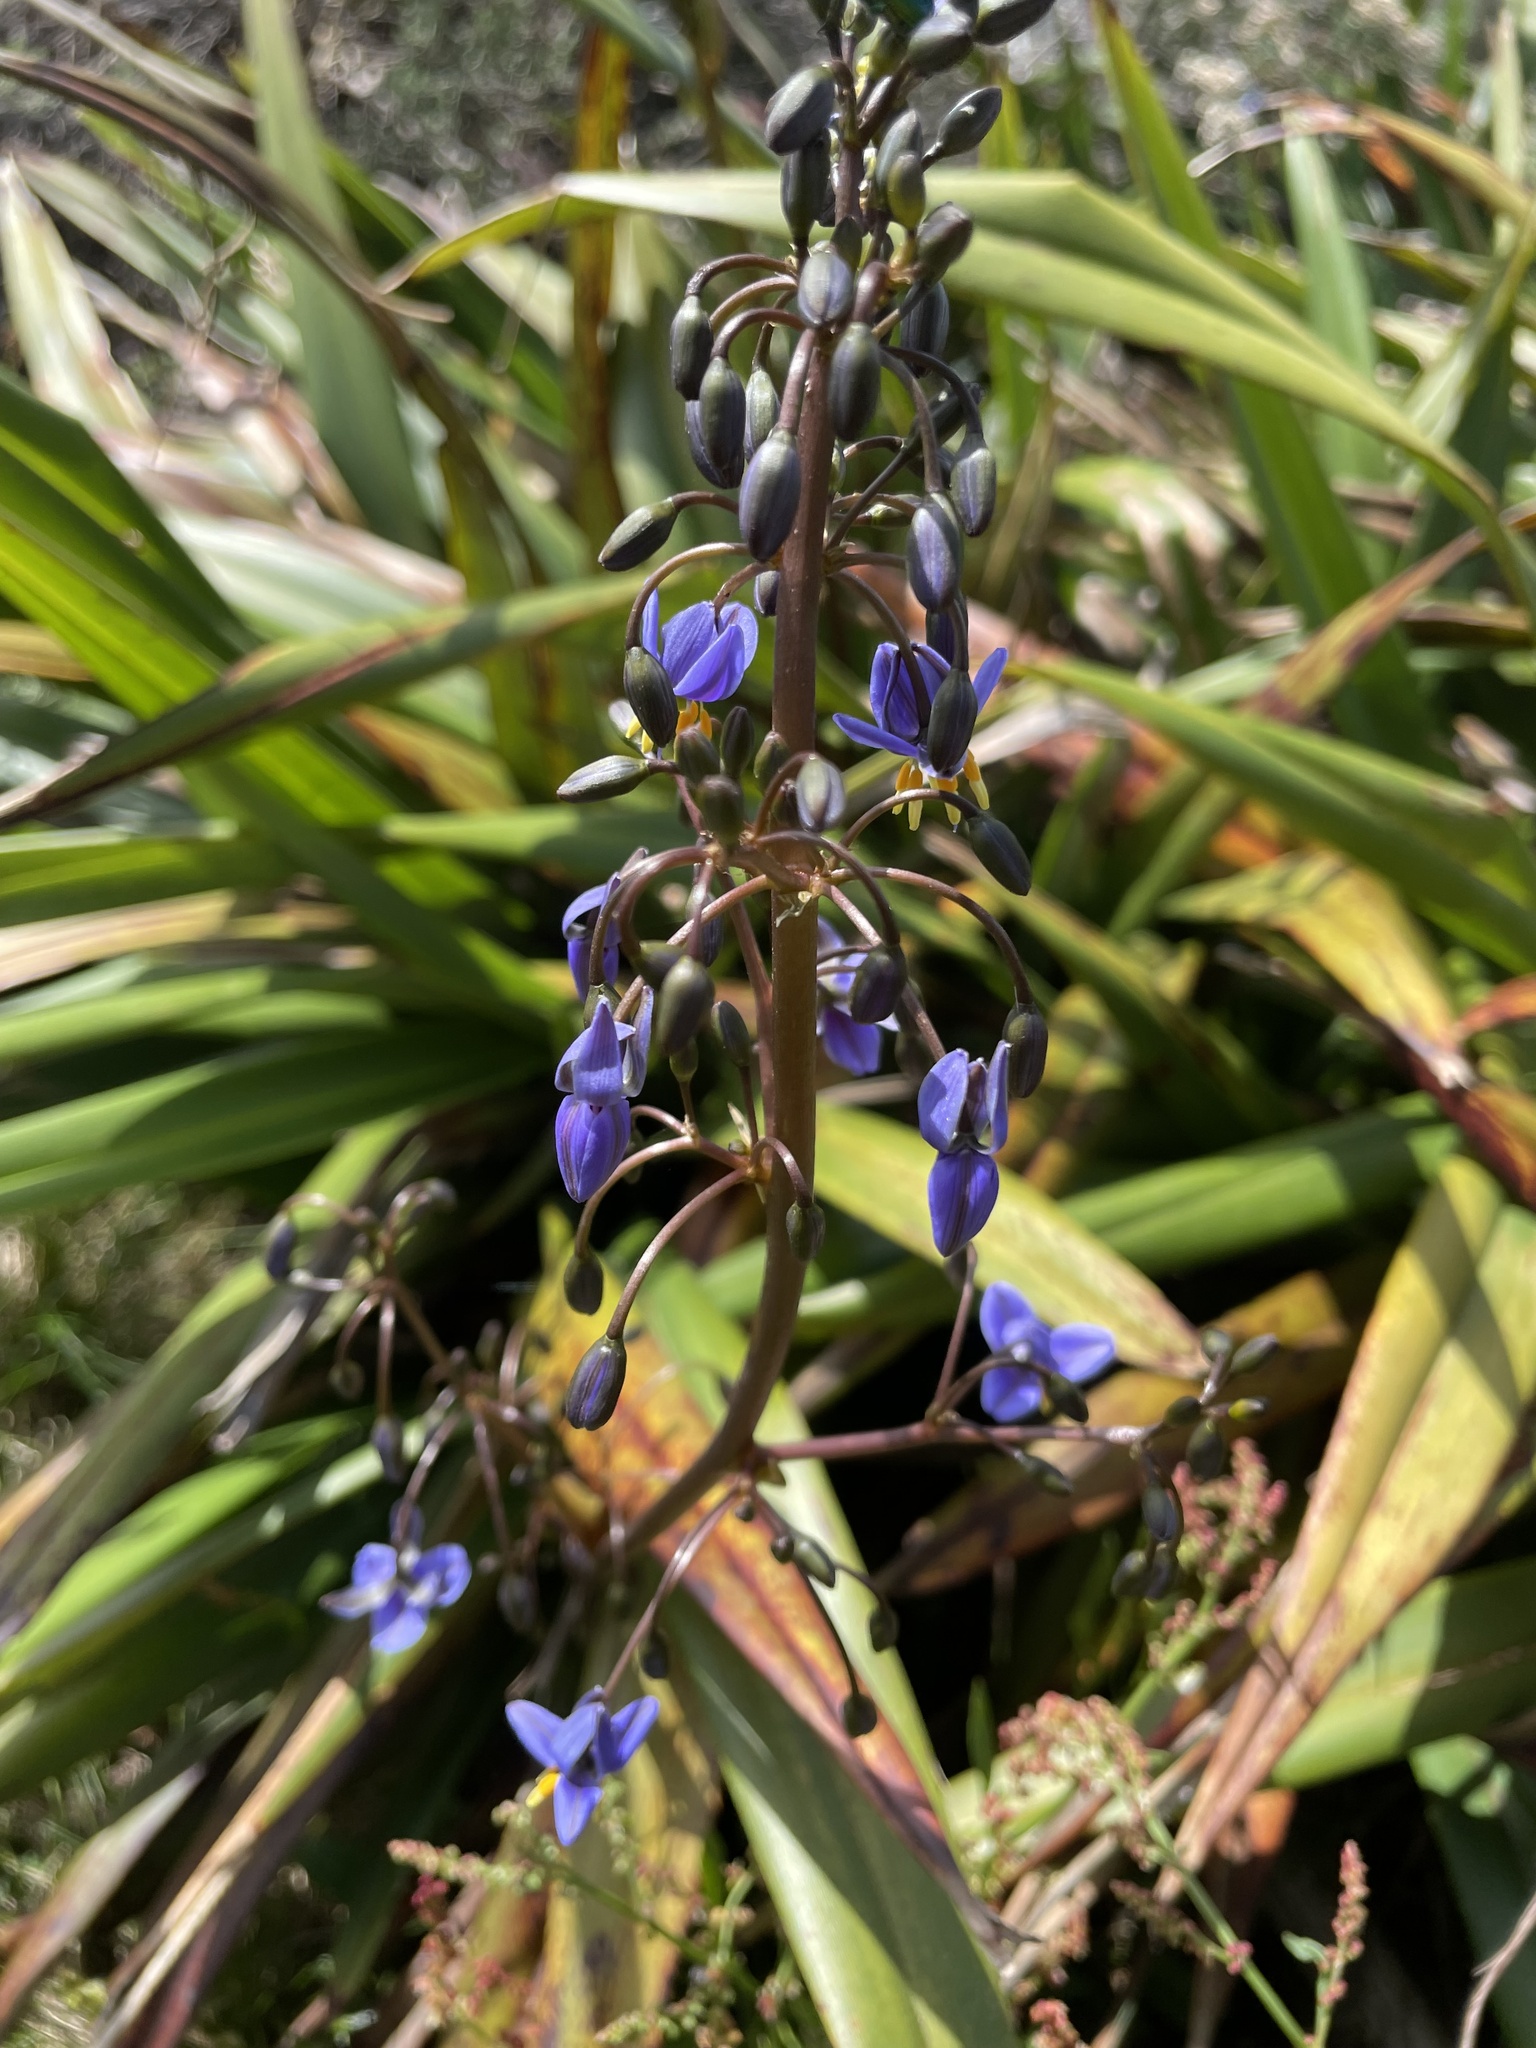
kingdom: Plantae
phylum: Tracheophyta
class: Liliopsida
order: Asparagales
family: Asphodelaceae
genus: Dianella
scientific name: Dianella tasmanica
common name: Tasman flax-lily
